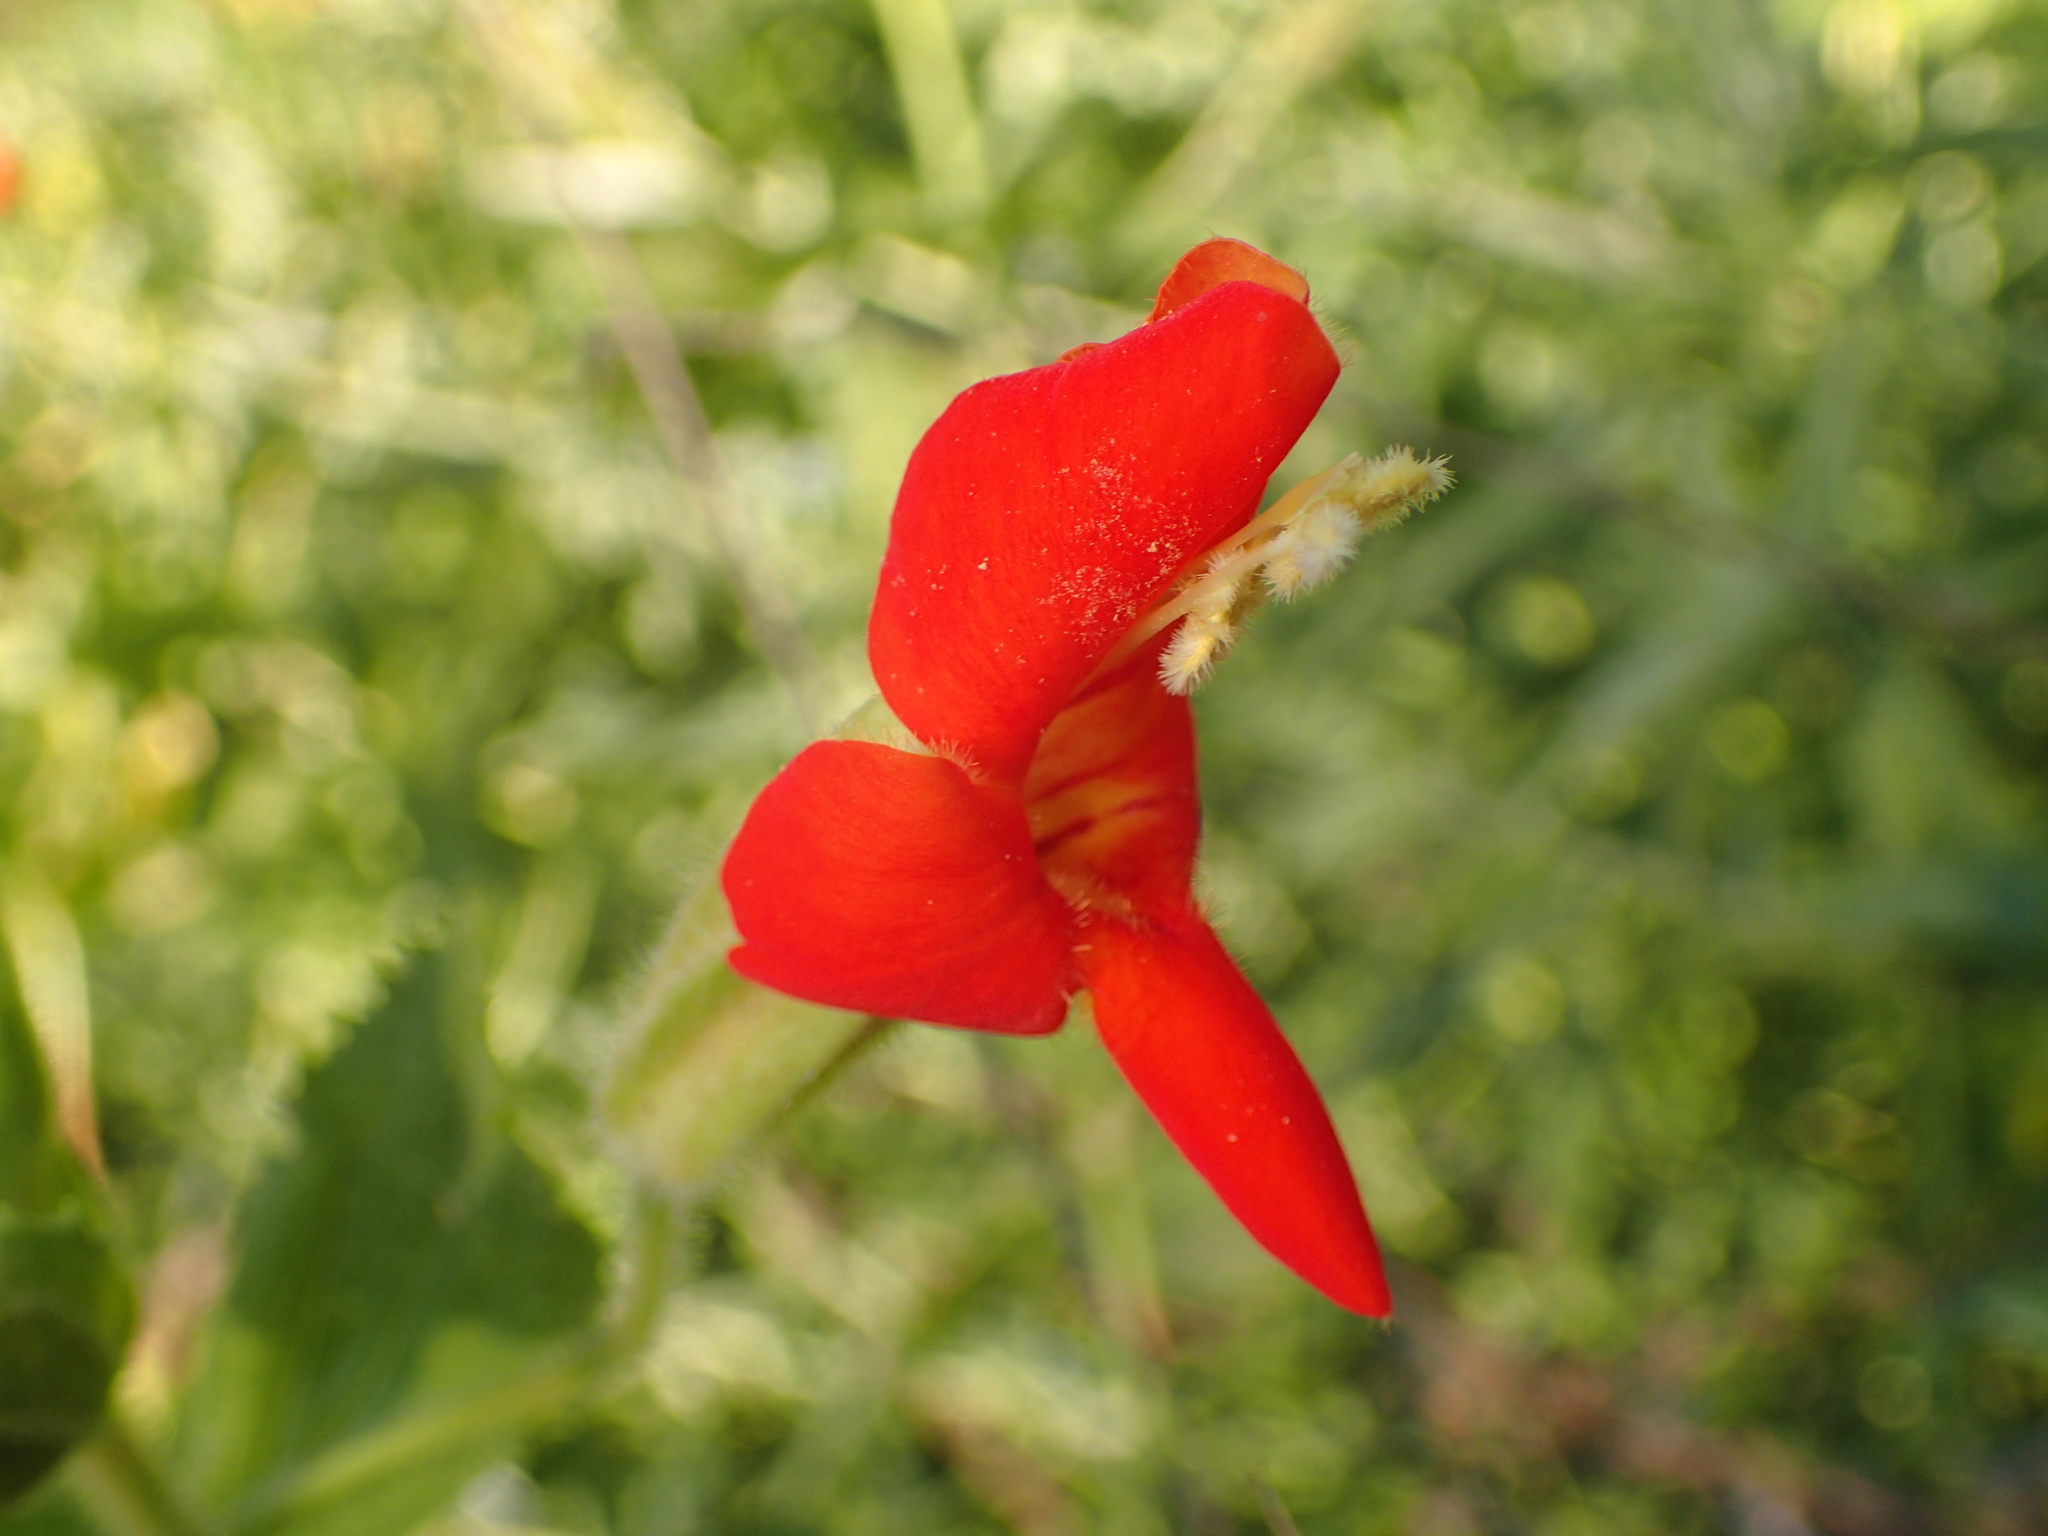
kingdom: Plantae
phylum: Tracheophyta
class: Magnoliopsida
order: Lamiales
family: Phrymaceae
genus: Erythranthe
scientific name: Erythranthe cardinalis
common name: Scarlet monkey-flower
